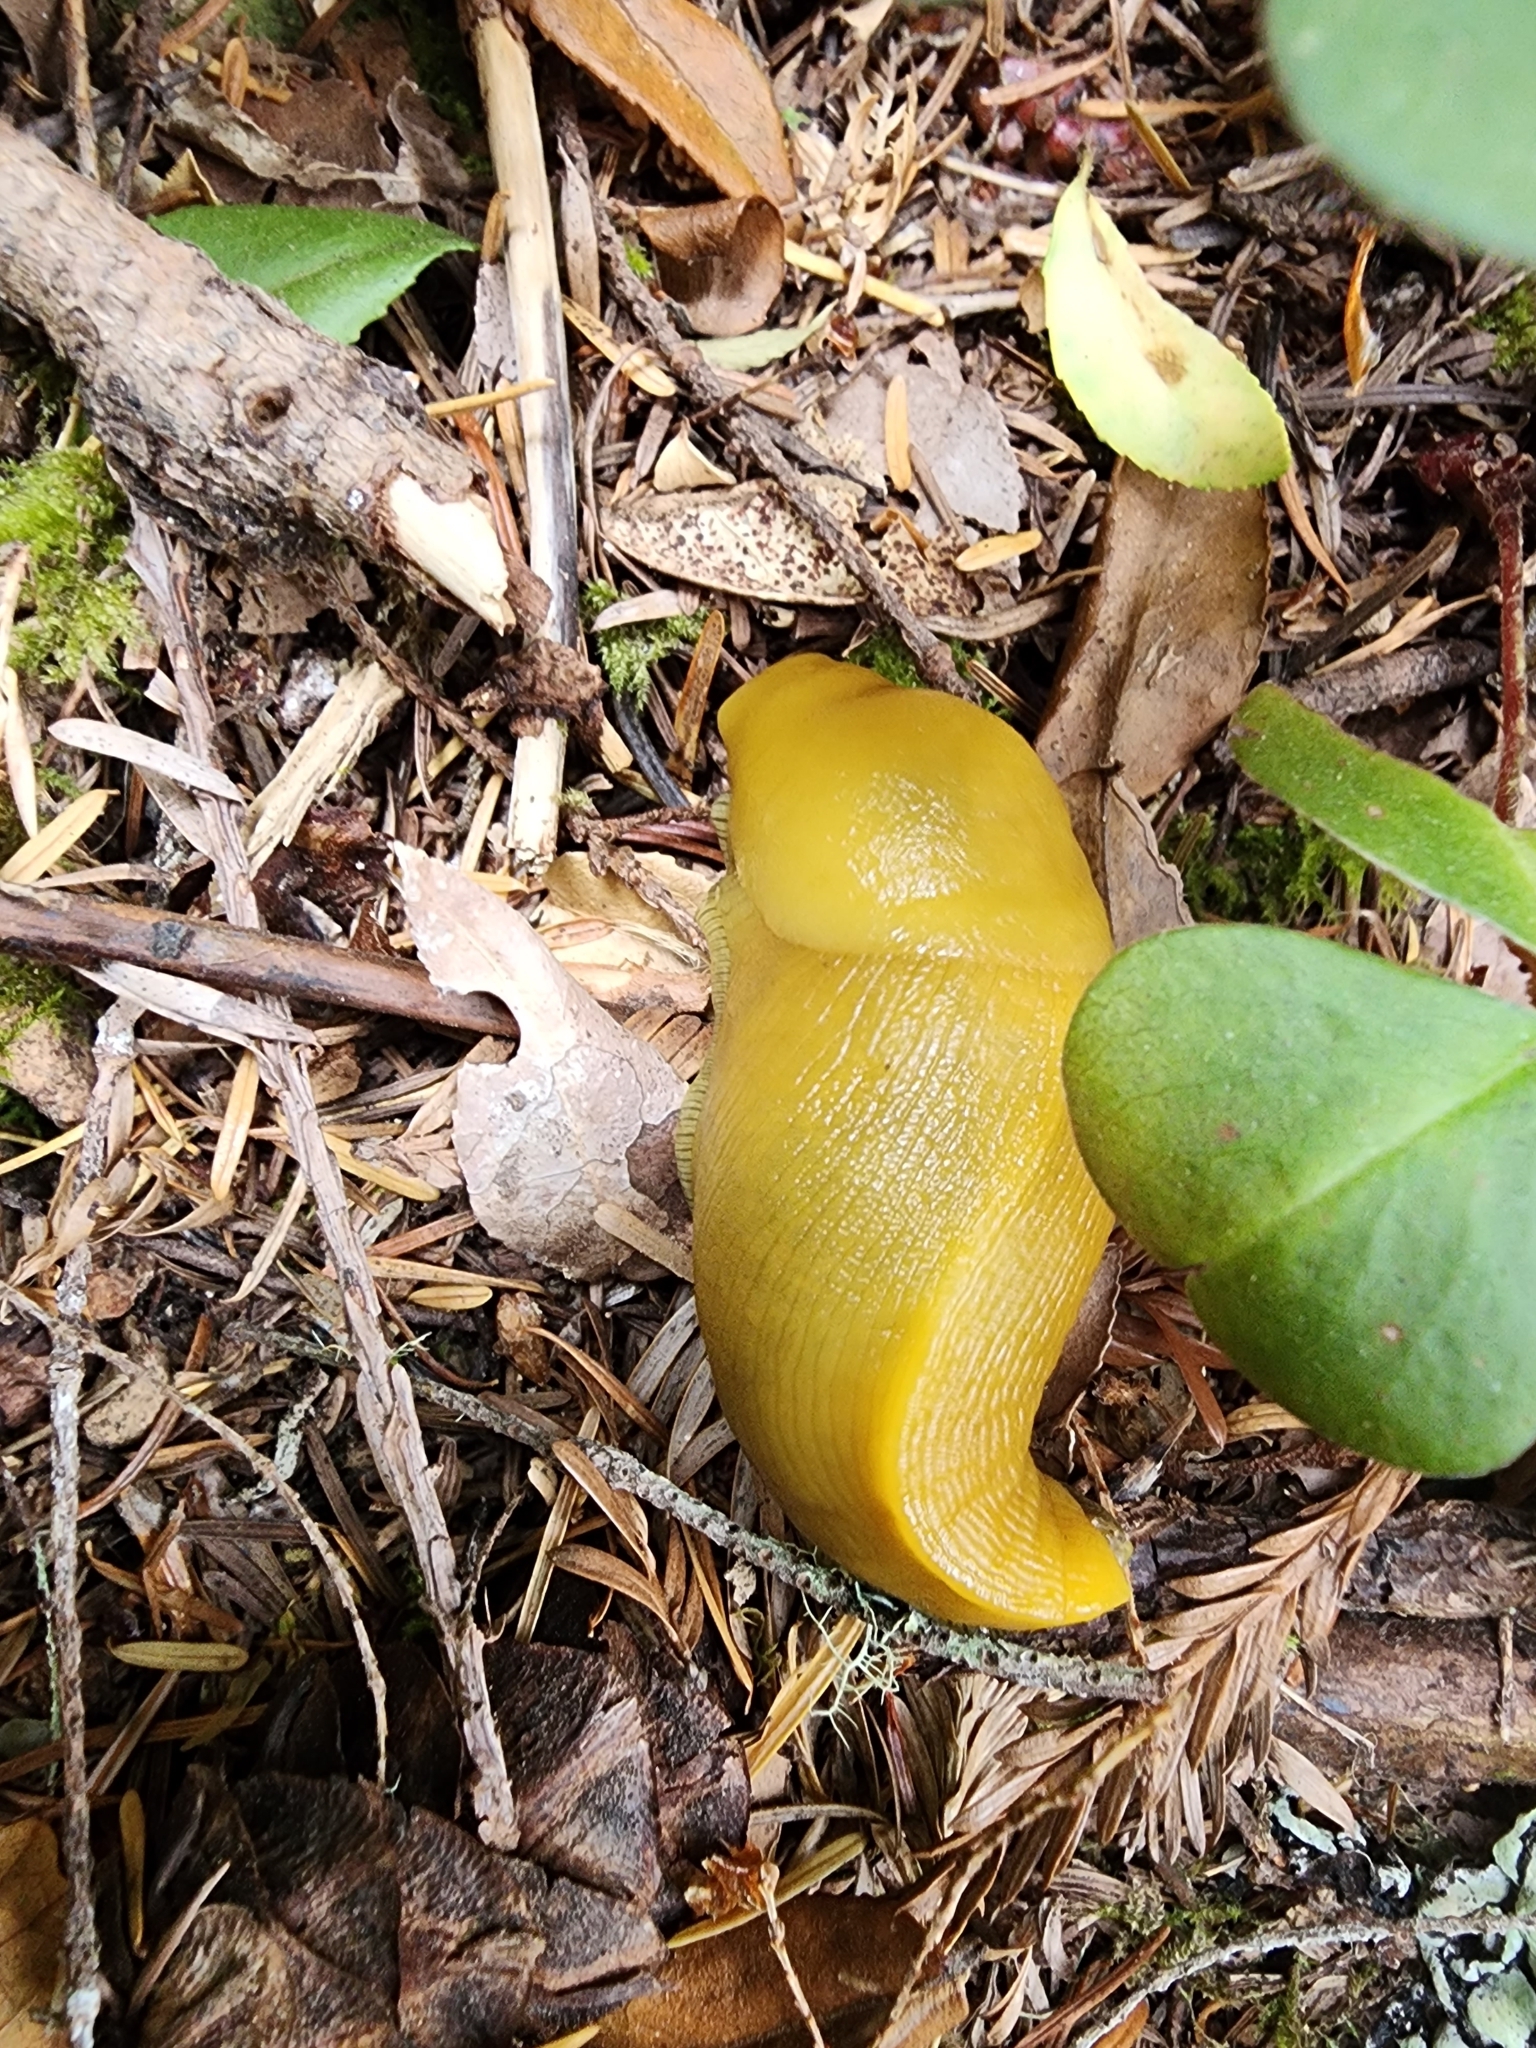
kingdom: Animalia
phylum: Mollusca
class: Gastropoda
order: Stylommatophora
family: Ariolimacidae
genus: Ariolimax
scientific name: Ariolimax buttoni
